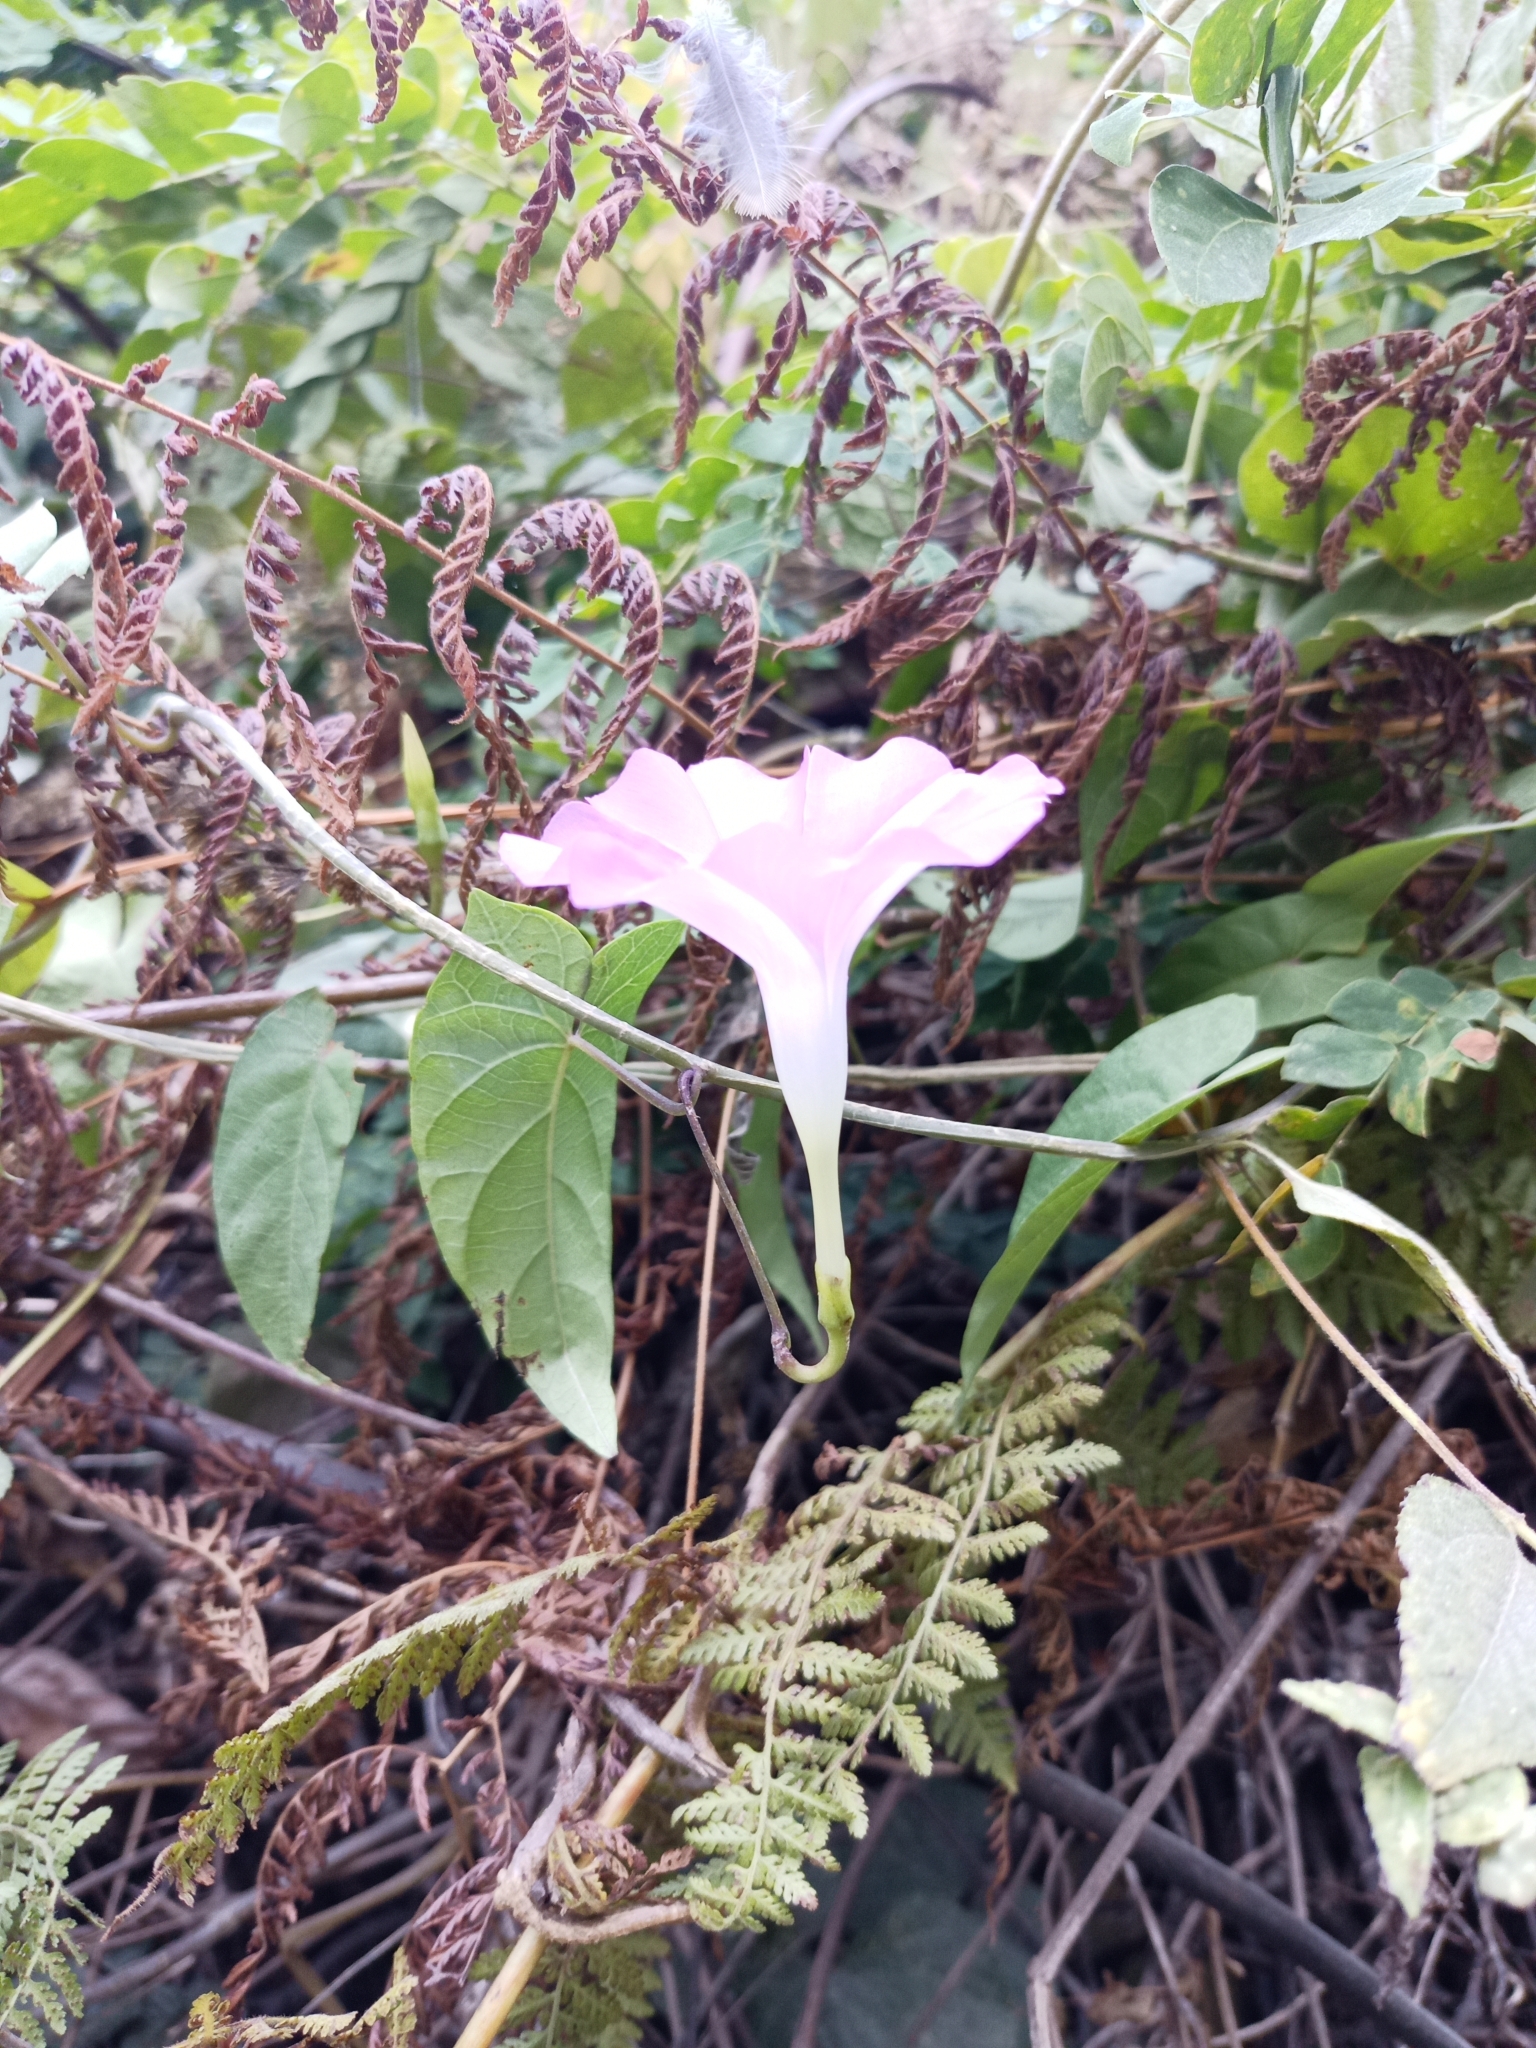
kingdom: Plantae
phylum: Tracheophyta
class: Magnoliopsida
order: Solanales
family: Convolvulaceae
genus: Ipomoea
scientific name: Ipomoea dumosa
